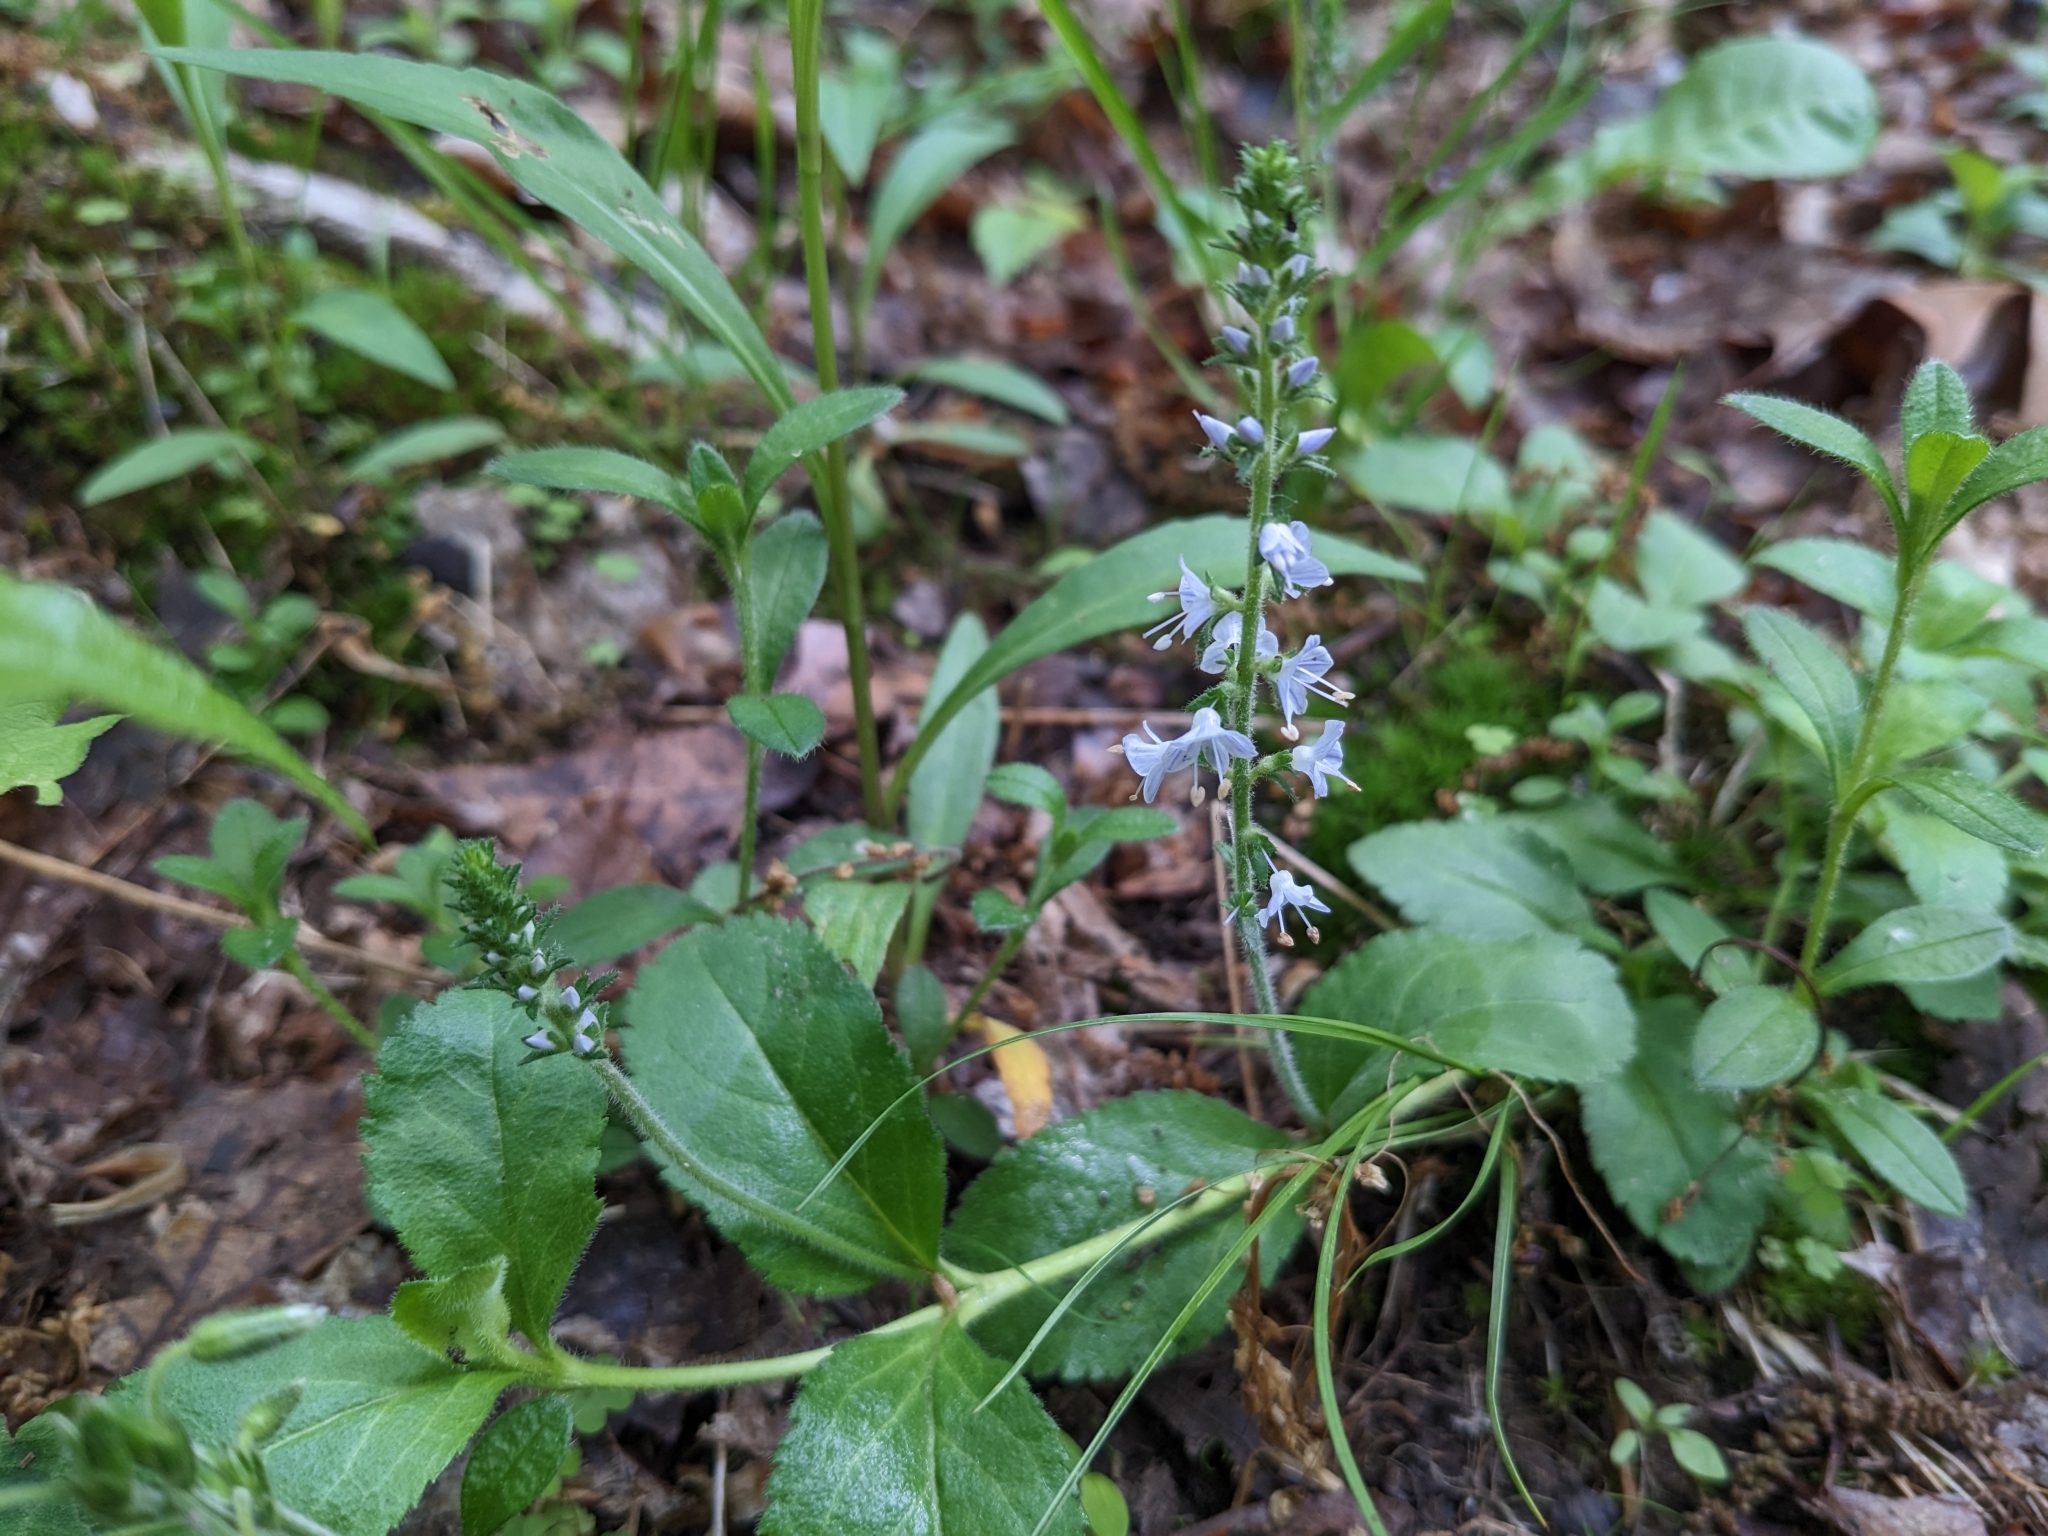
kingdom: Plantae
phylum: Tracheophyta
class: Magnoliopsida
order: Lamiales
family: Plantaginaceae
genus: Veronica
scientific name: Veronica officinalis
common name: Common speedwell
